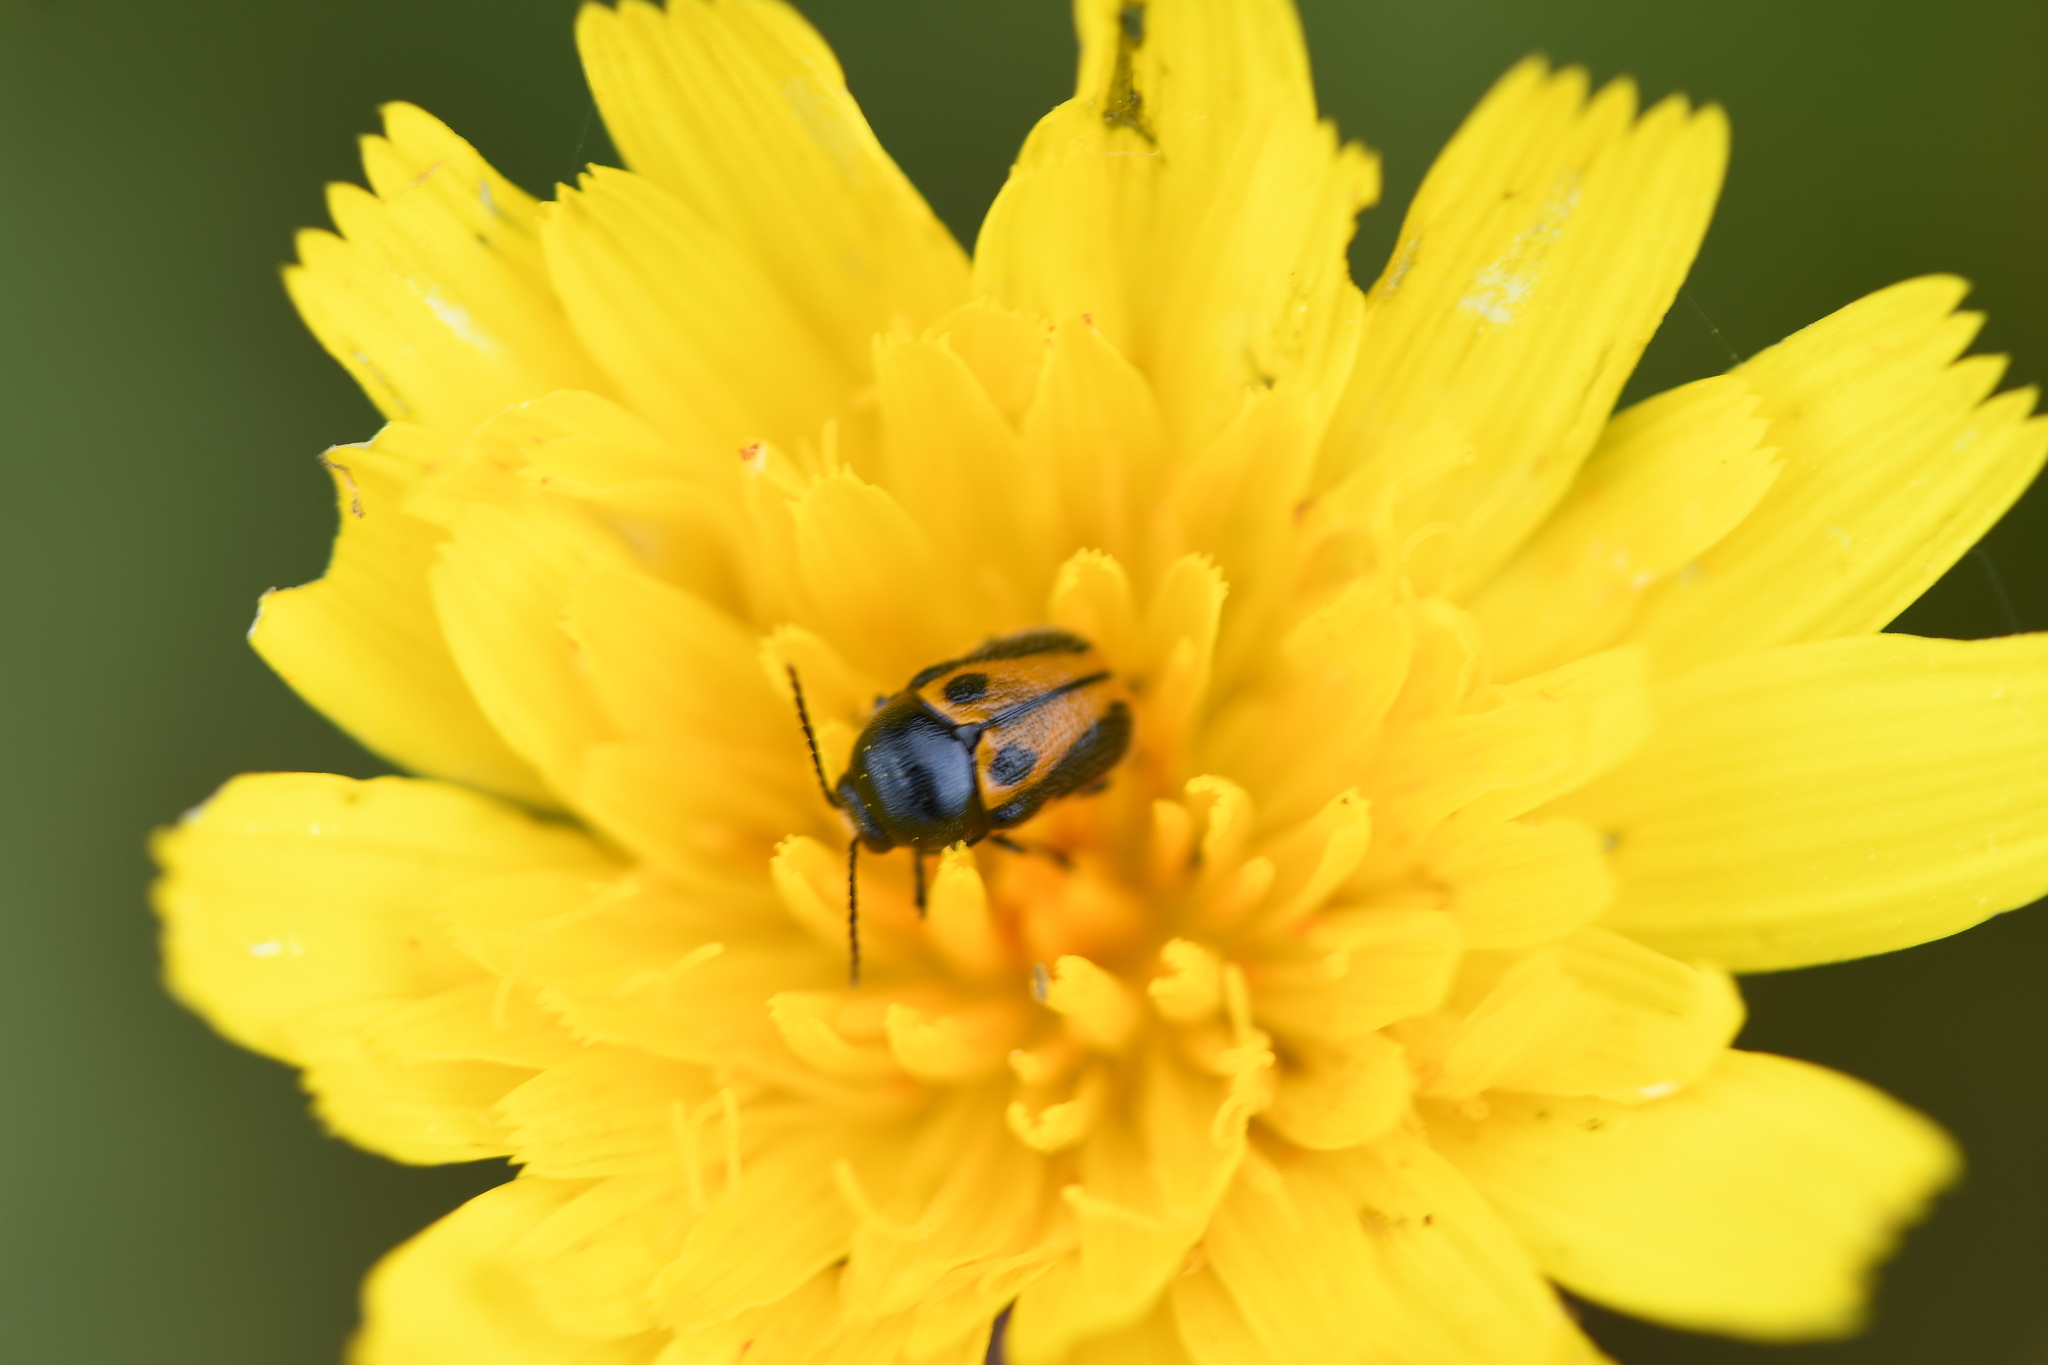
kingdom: Animalia
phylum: Arthropoda
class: Insecta
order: Coleoptera
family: Chrysomelidae
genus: Cryptocephalus
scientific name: Cryptocephalus rugicollis
